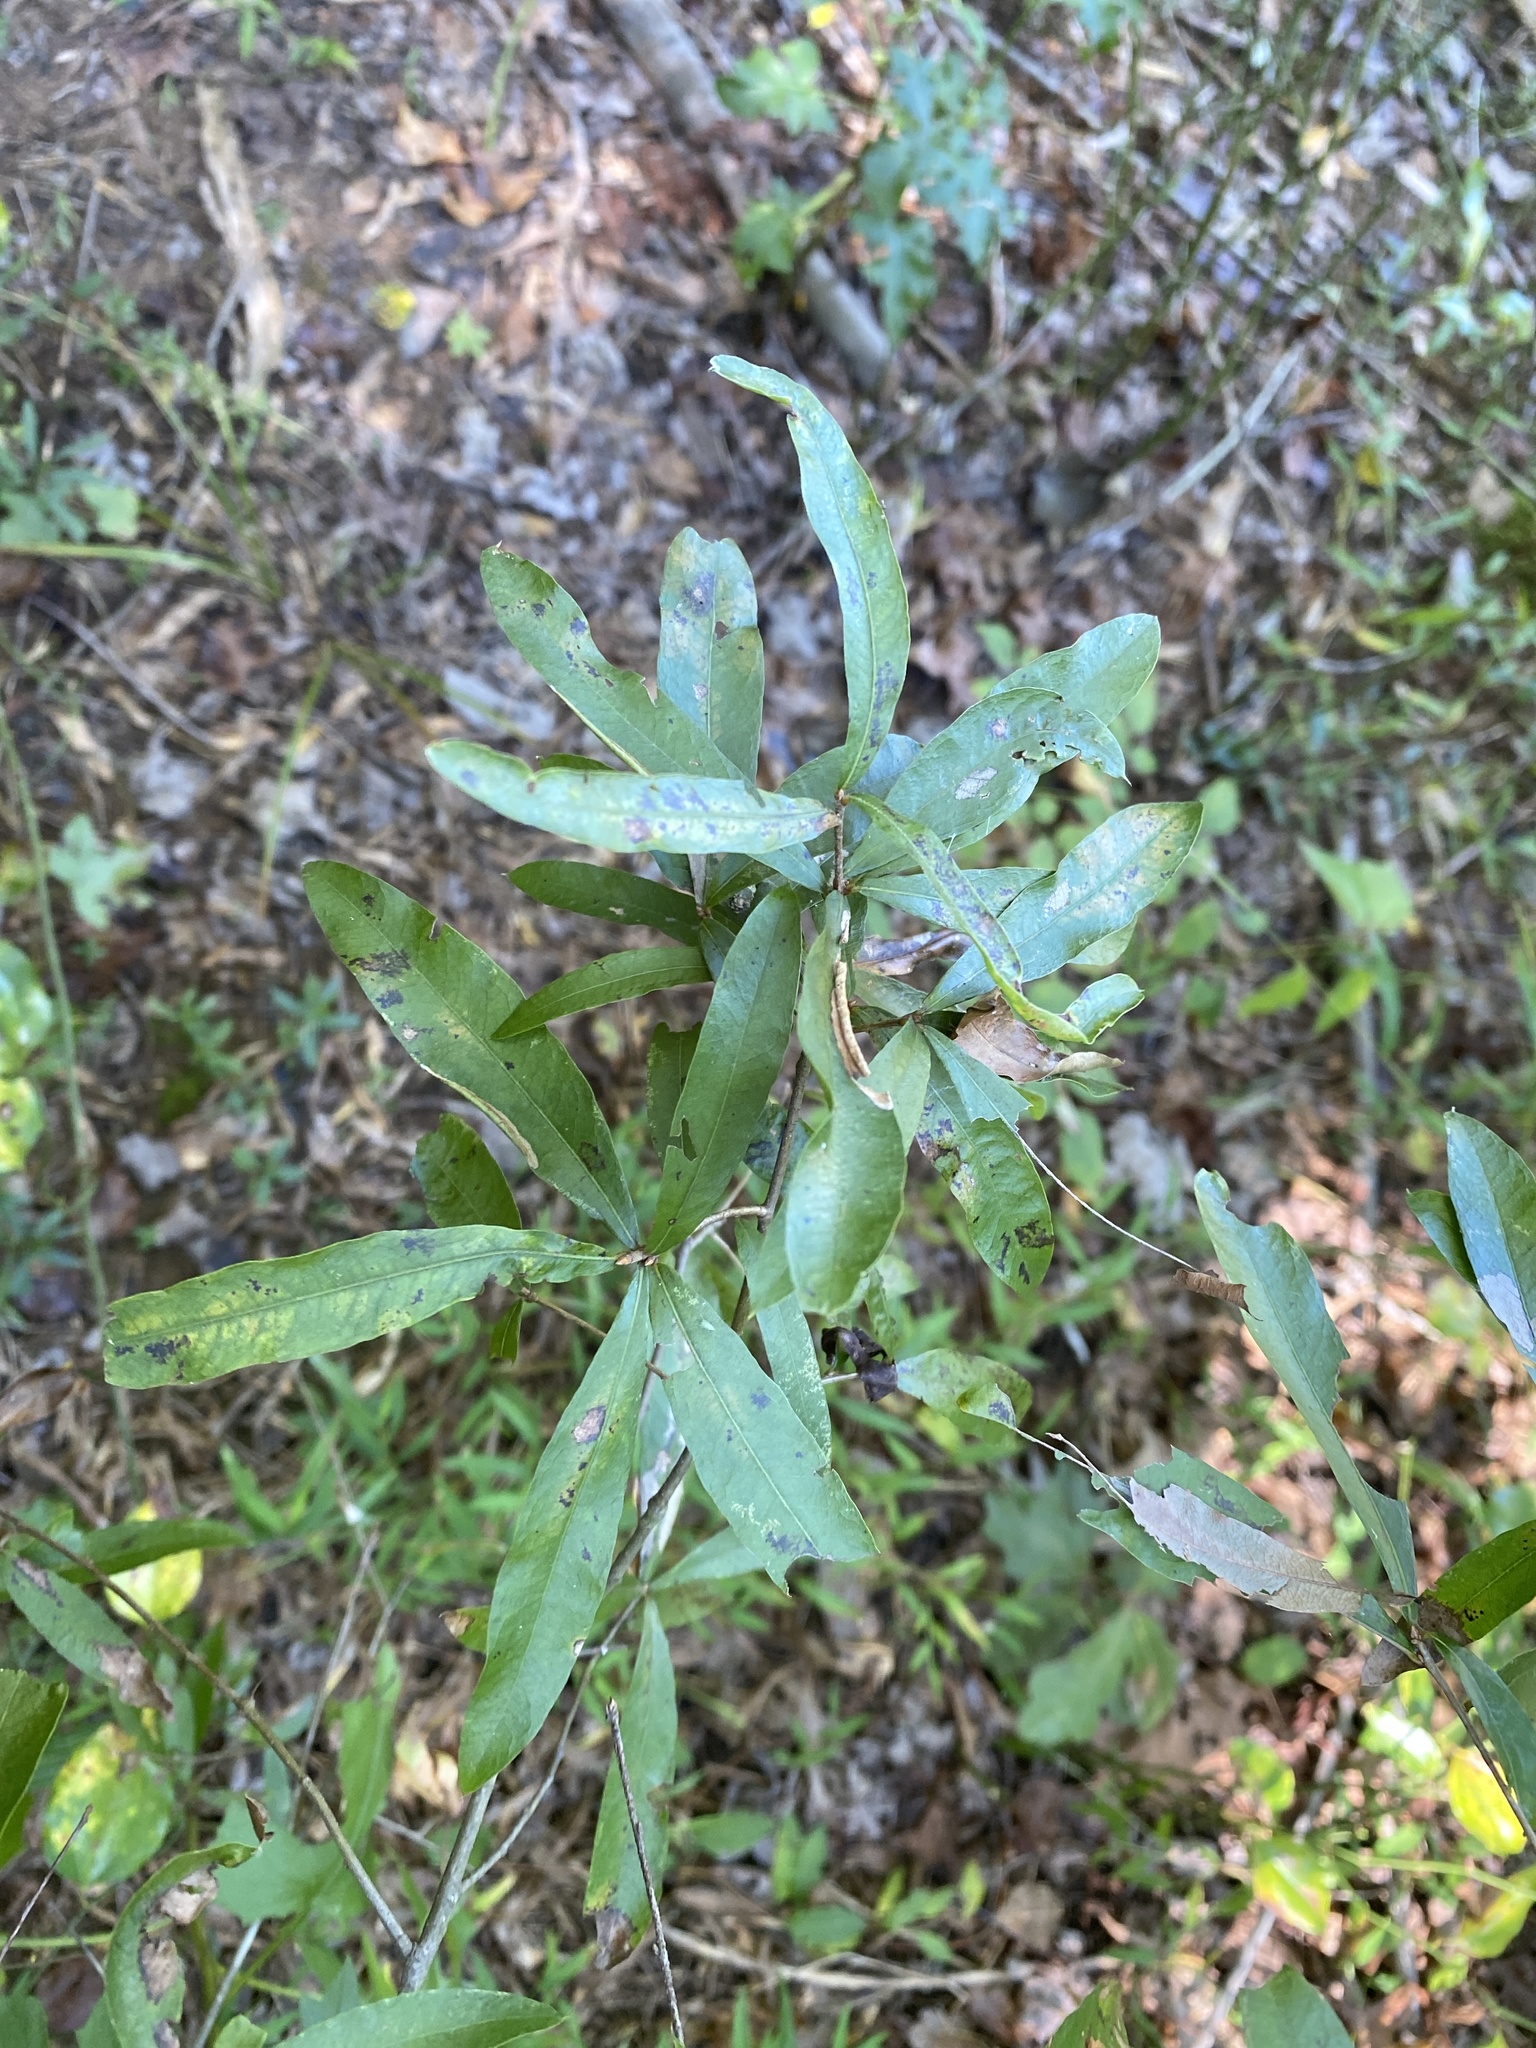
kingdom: Plantae
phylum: Tracheophyta
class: Magnoliopsida
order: Fagales
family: Fagaceae
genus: Quercus
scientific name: Quercus phellos
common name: Willow oak
